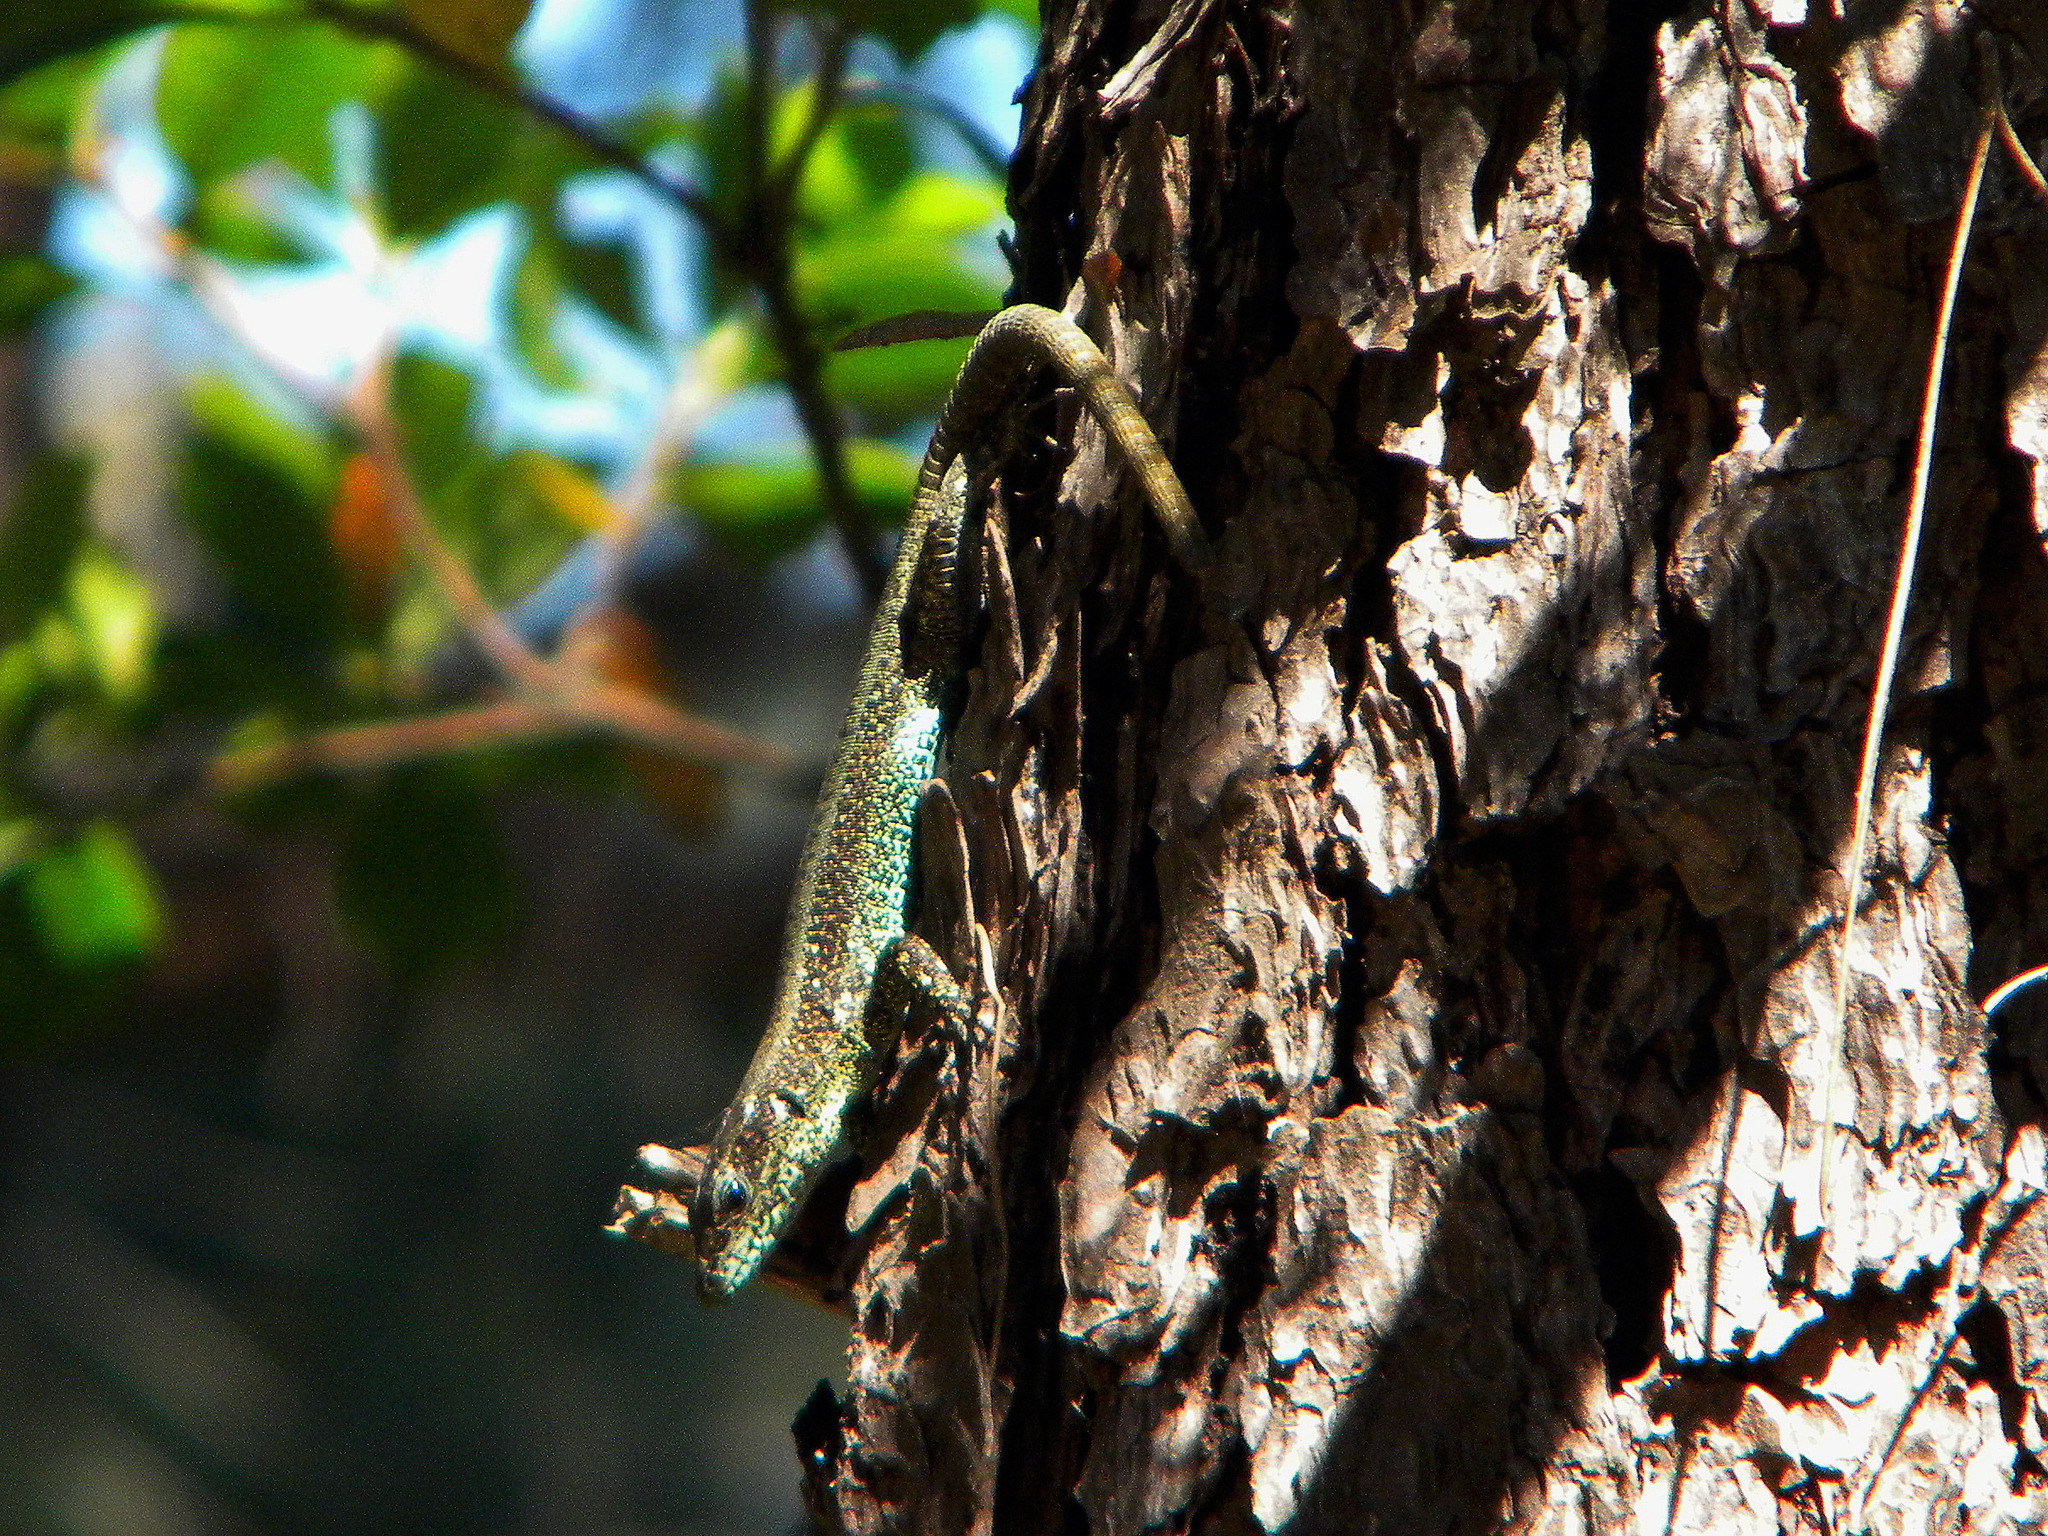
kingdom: Animalia
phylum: Chordata
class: Squamata
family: Lacertidae
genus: Anatololacerta
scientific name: Anatololacerta anatolica
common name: Anatolian rock lizard
